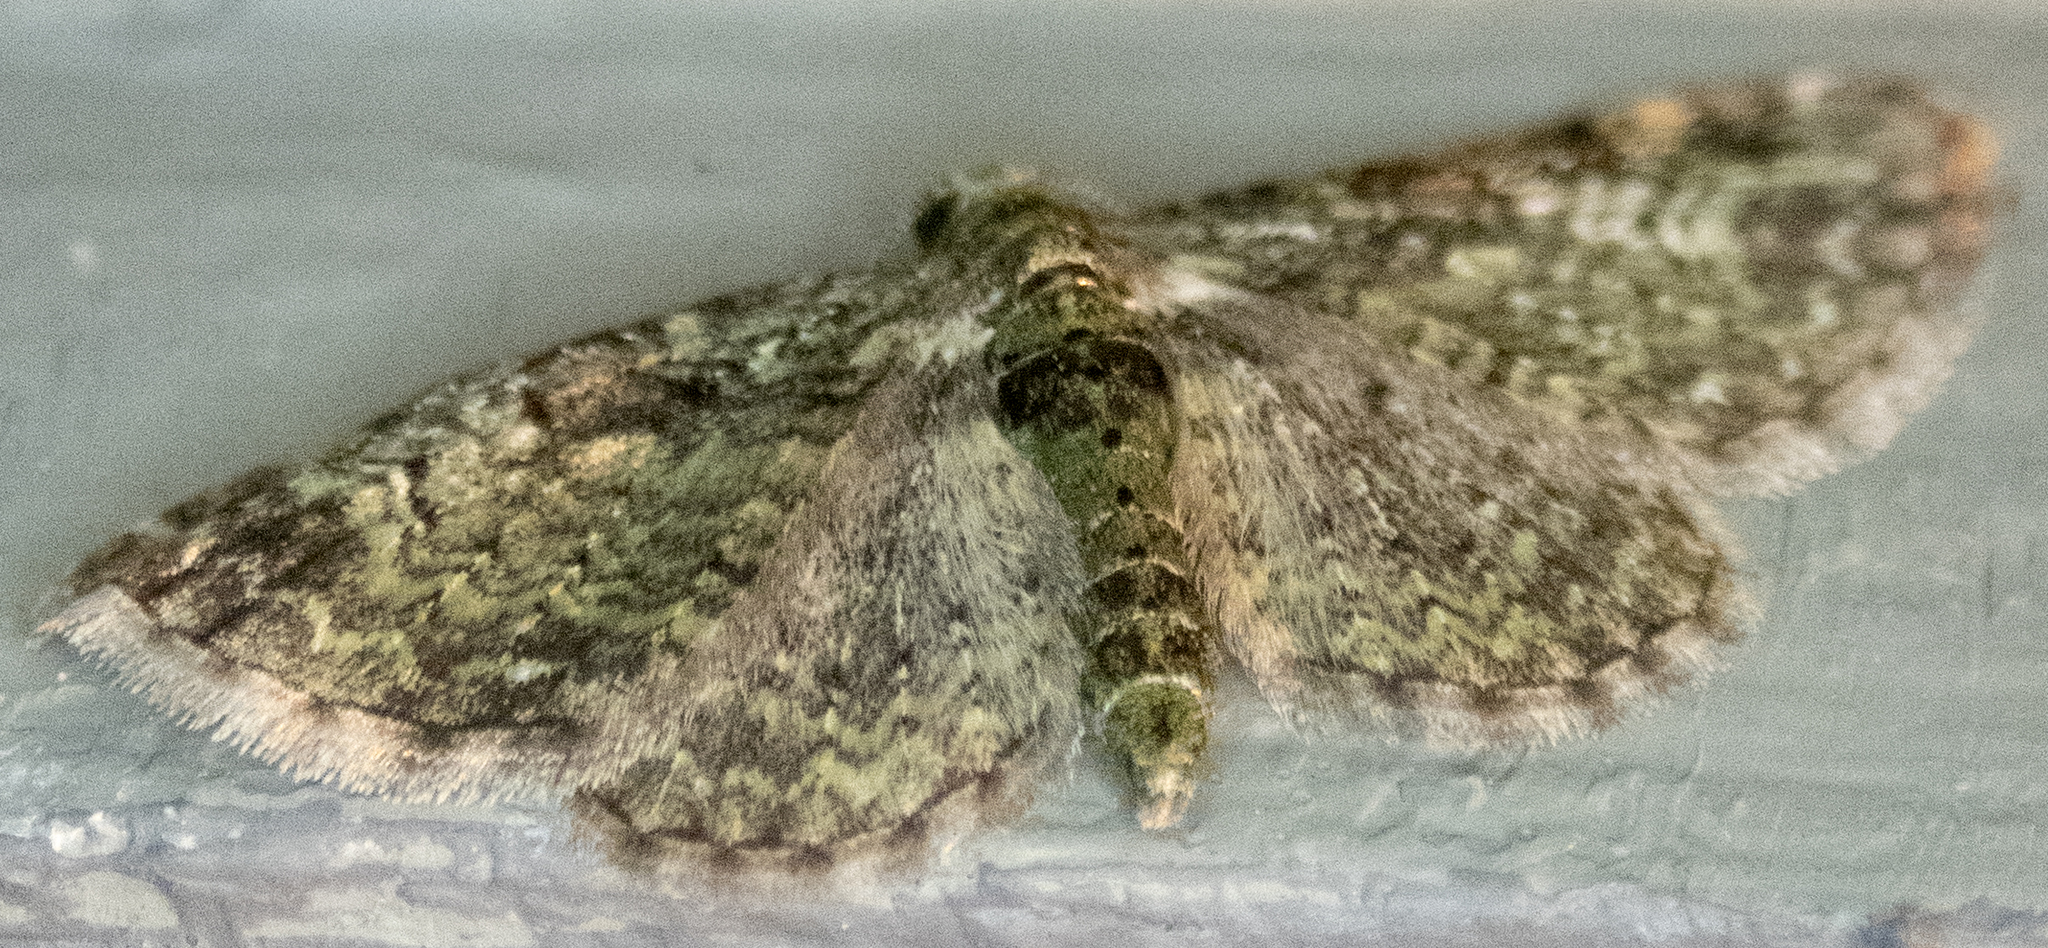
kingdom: Animalia
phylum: Arthropoda
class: Insecta
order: Lepidoptera
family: Geometridae
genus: Pasiphila
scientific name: Pasiphila rectangulata
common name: Green pug
